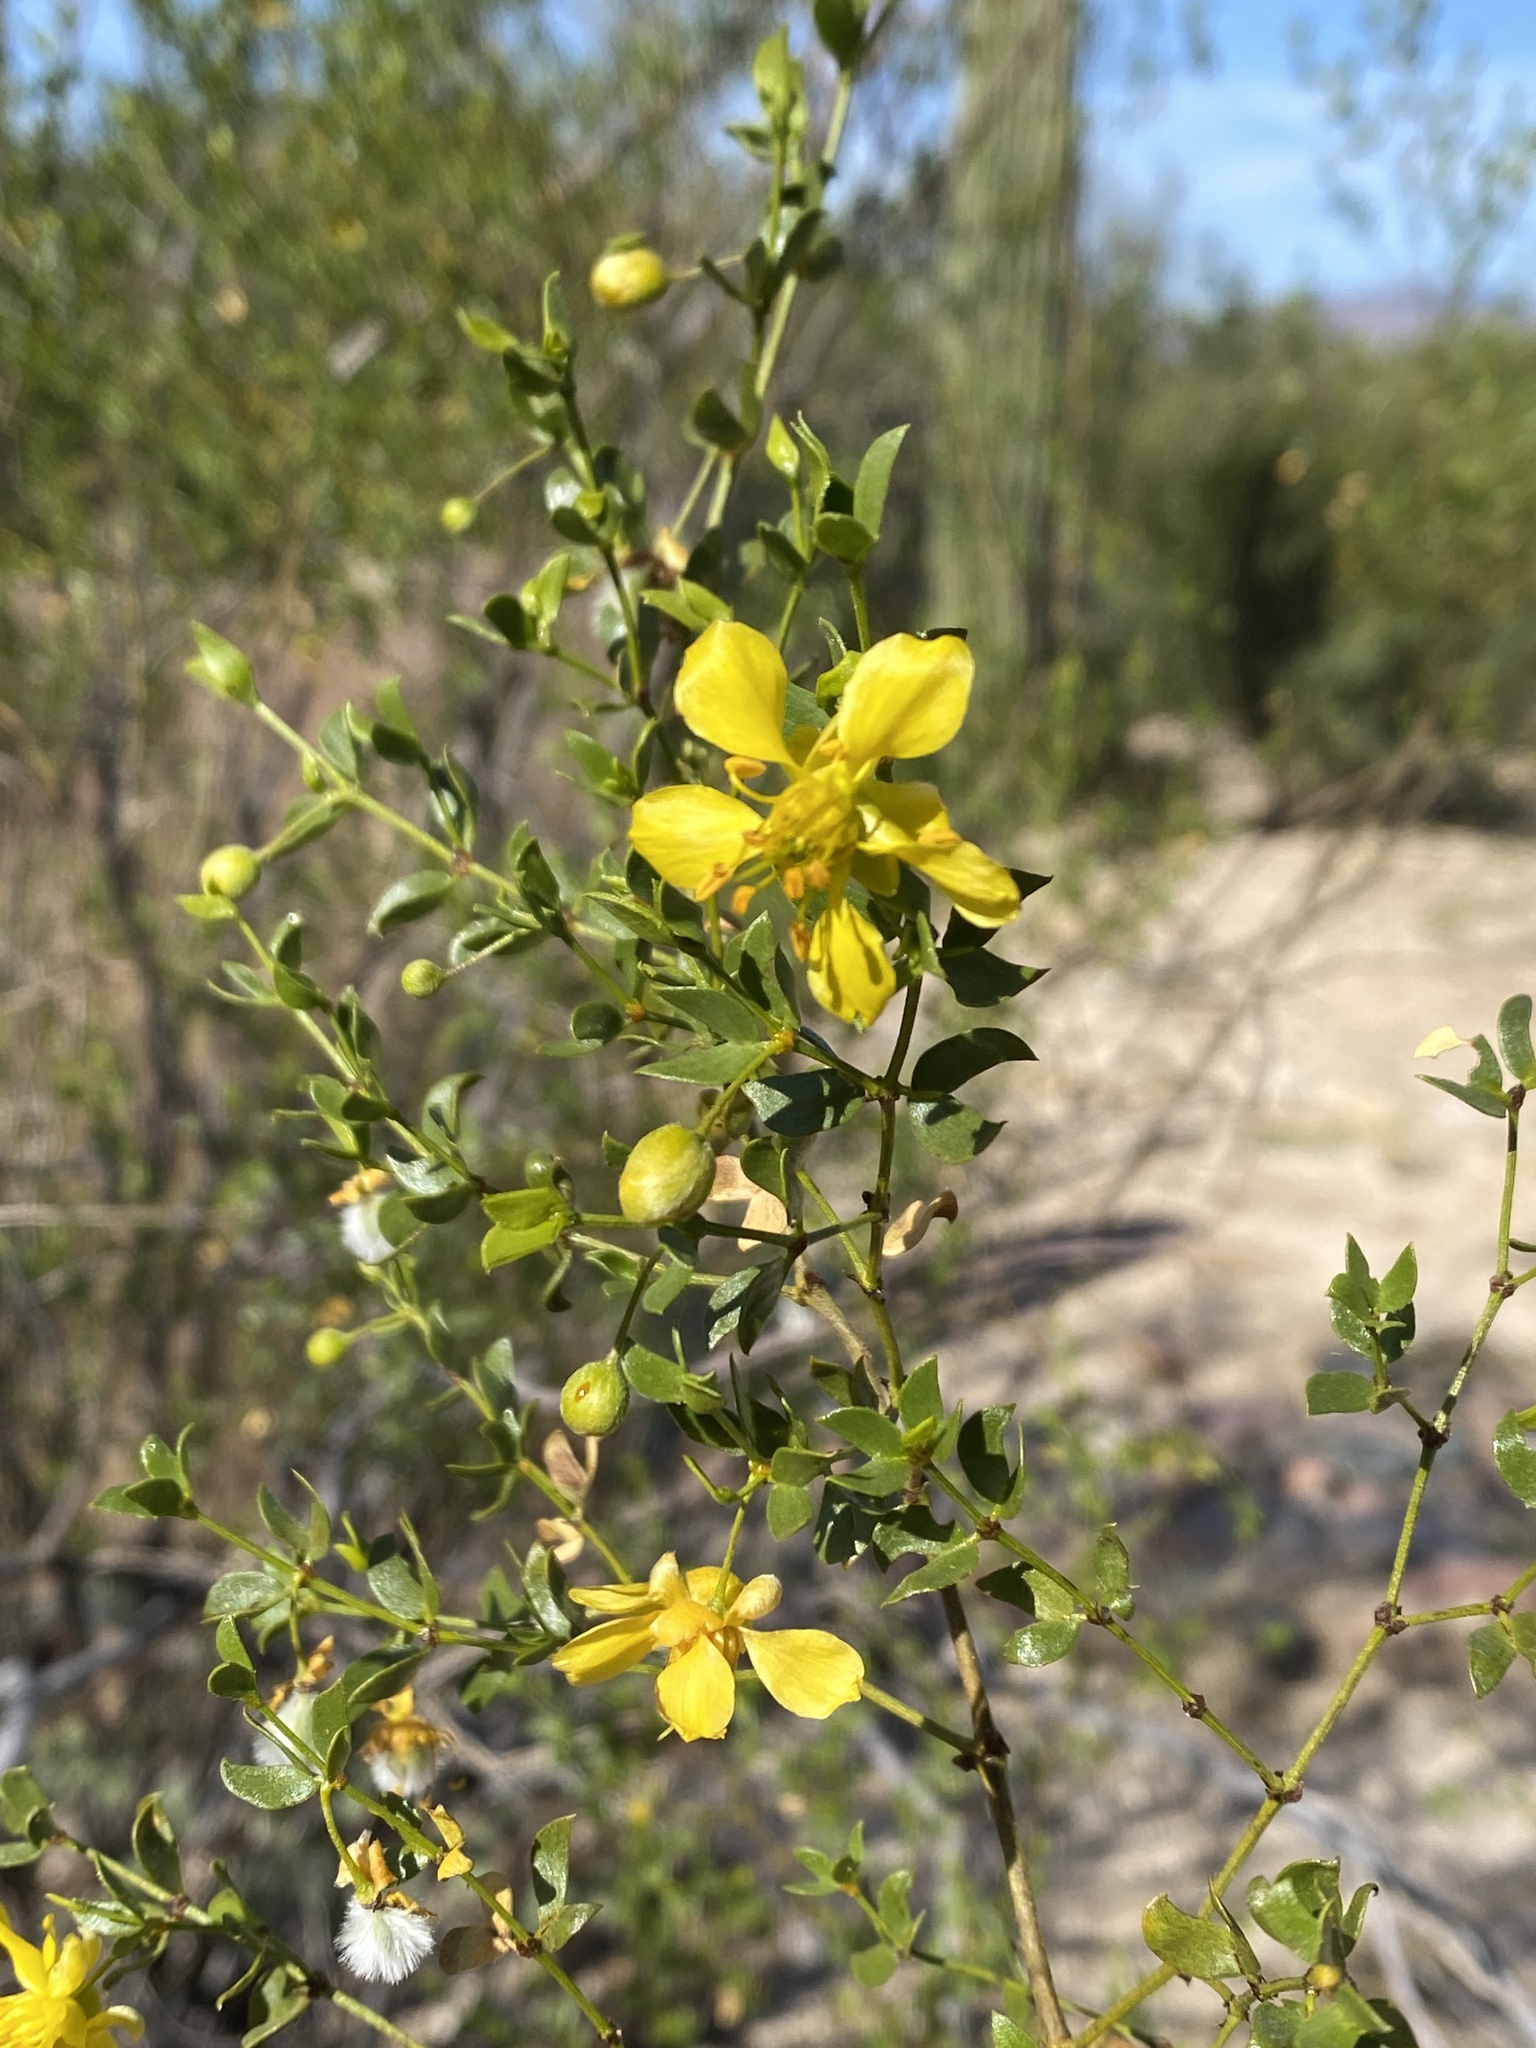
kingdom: Plantae
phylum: Tracheophyta
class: Magnoliopsida
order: Zygophyllales
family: Zygophyllaceae
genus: Larrea
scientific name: Larrea tridentata
